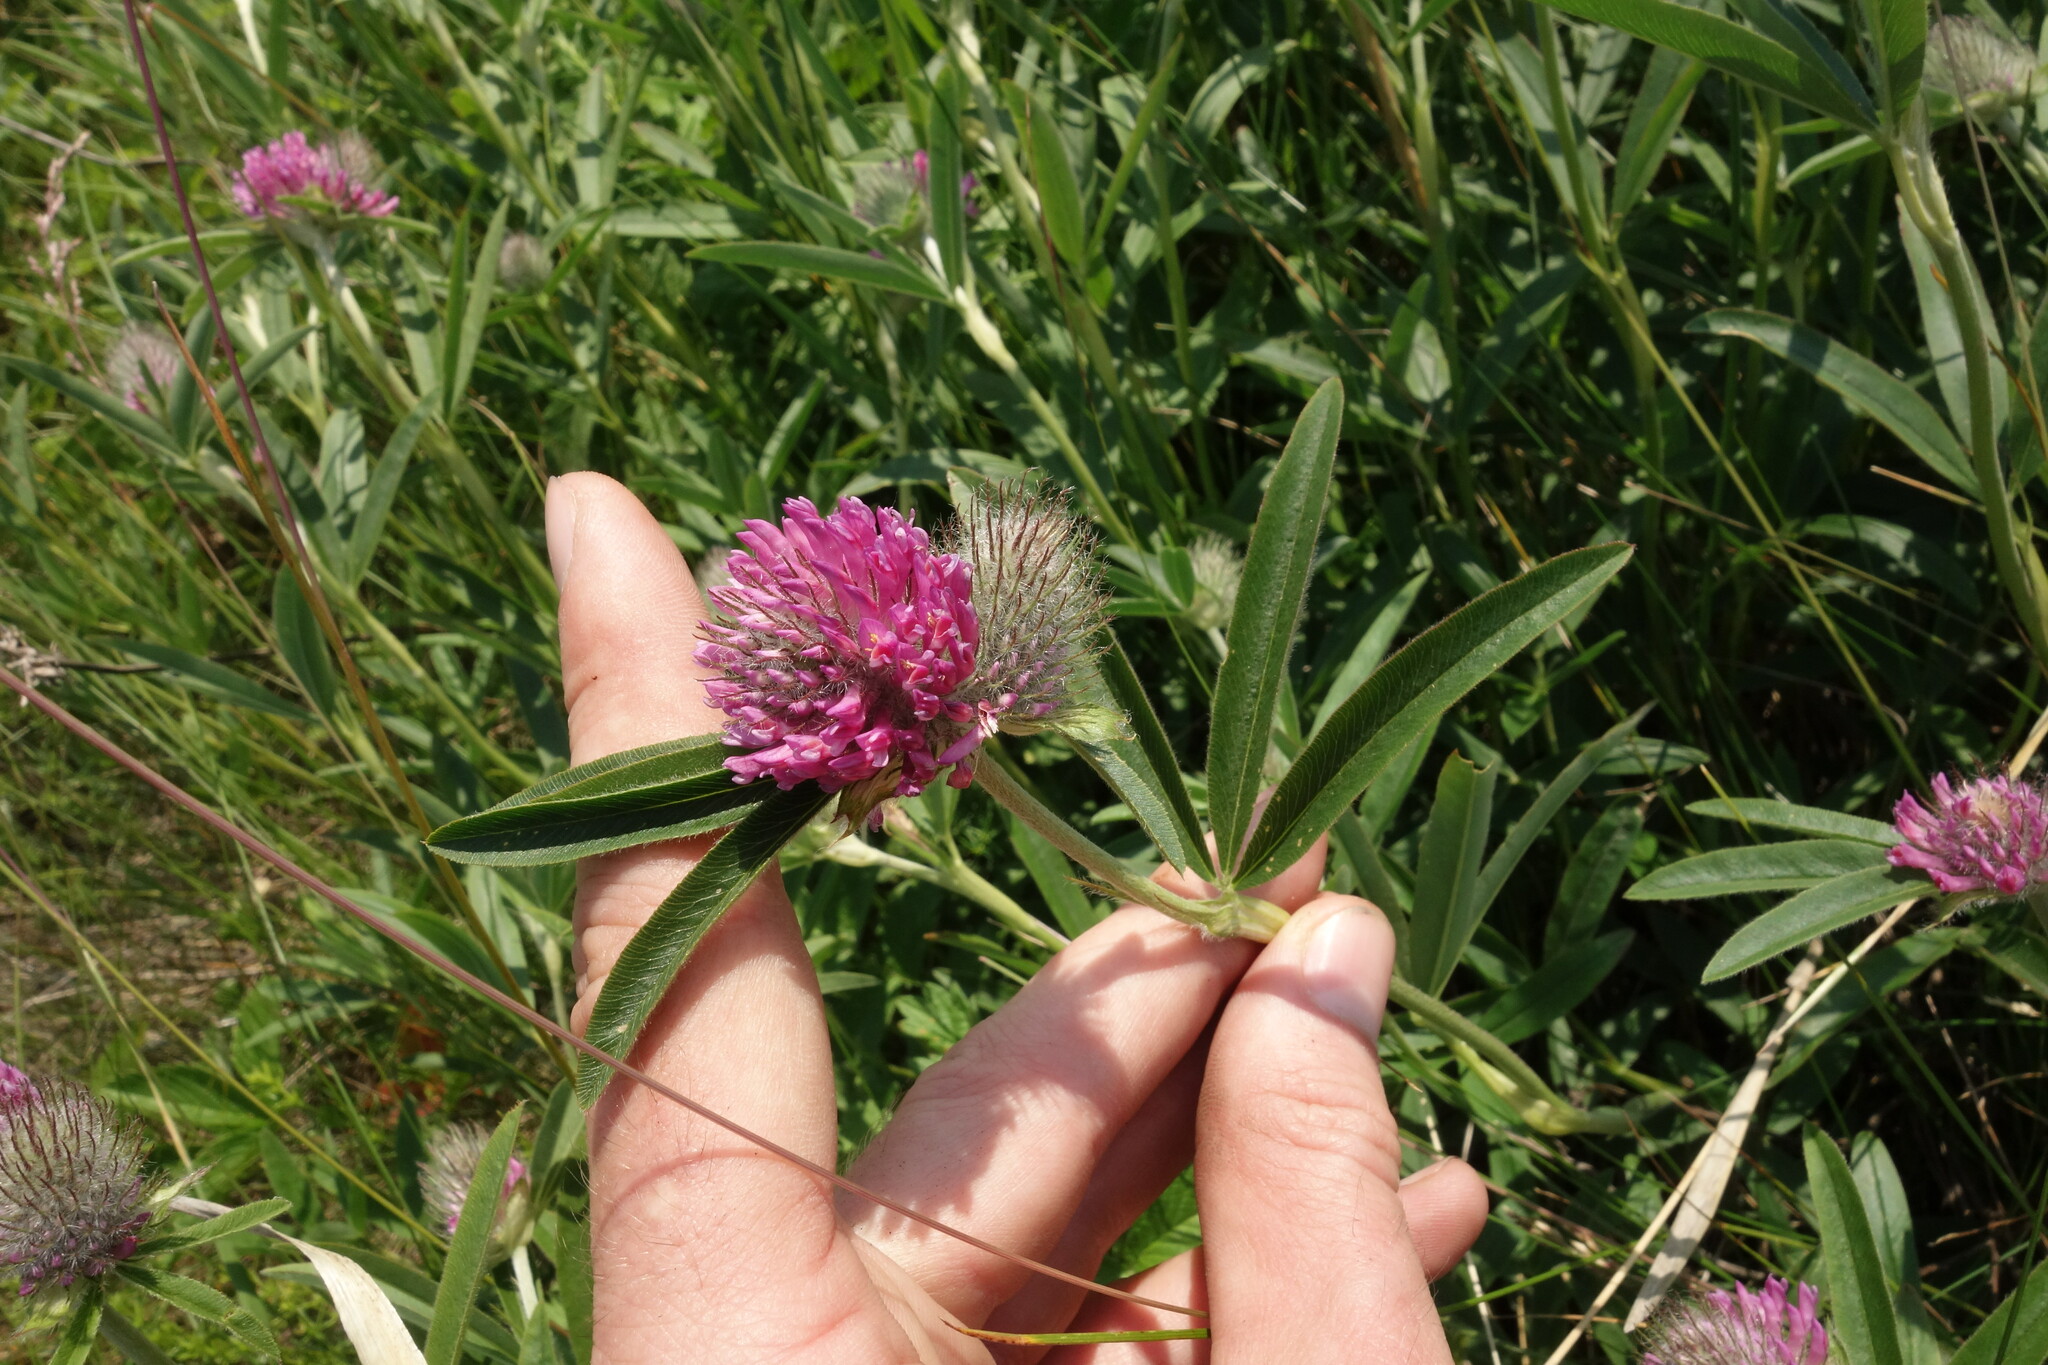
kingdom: Plantae
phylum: Tracheophyta
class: Magnoliopsida
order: Fabales
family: Fabaceae
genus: Trifolium
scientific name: Trifolium alpestre
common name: Owl-head clover
